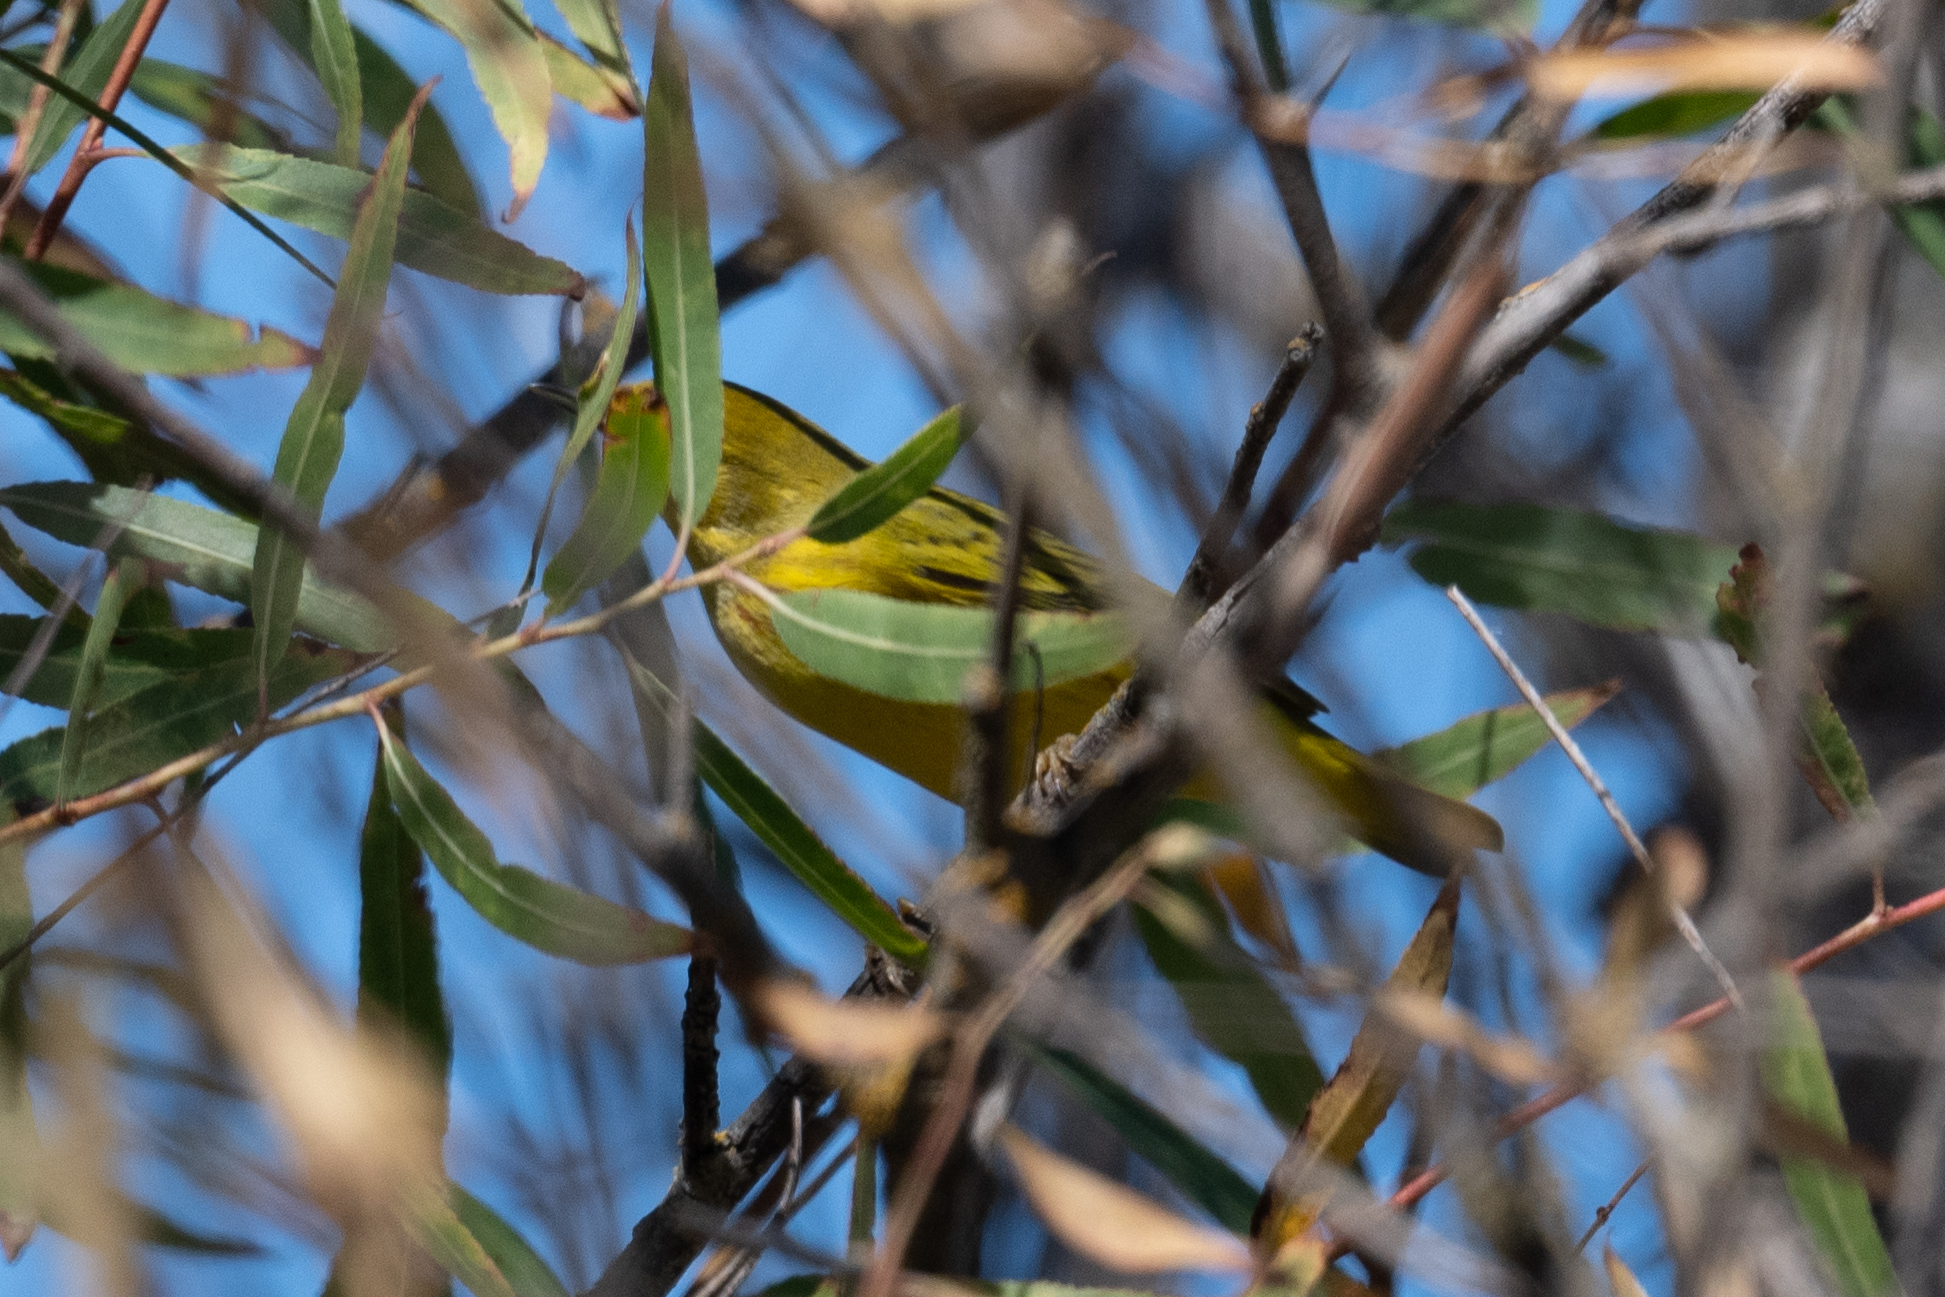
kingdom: Animalia
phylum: Chordata
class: Aves
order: Passeriformes
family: Parulidae
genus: Setophaga
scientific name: Setophaga petechia
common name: Yellow warbler
